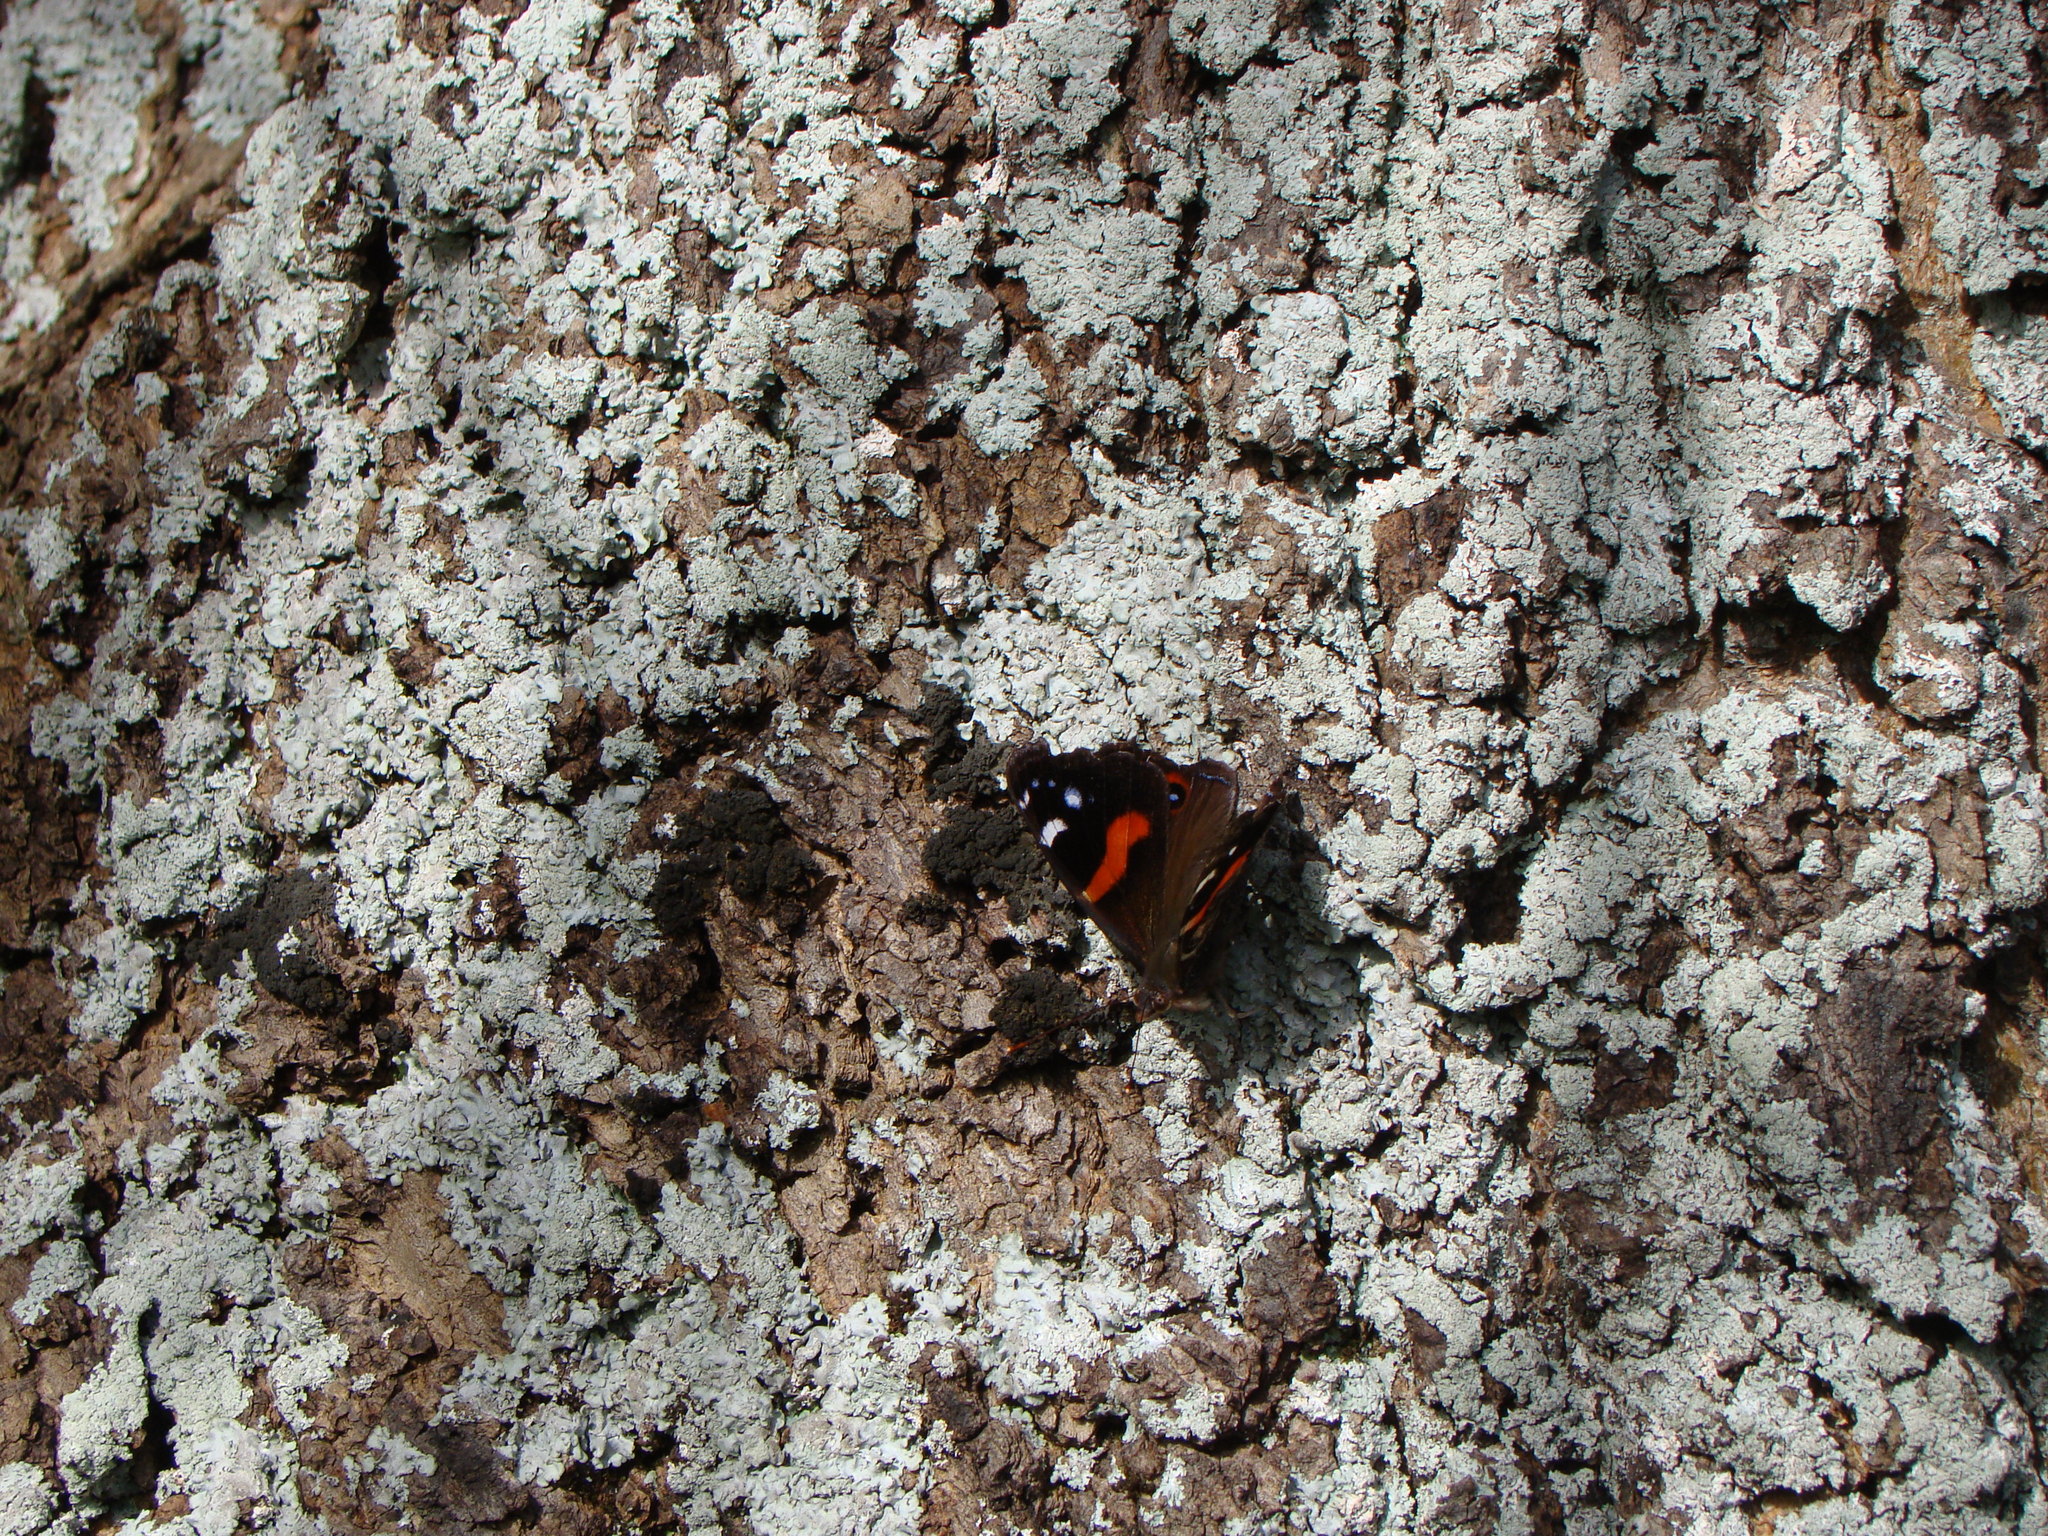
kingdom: Animalia
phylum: Arthropoda
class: Insecta
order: Lepidoptera
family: Nymphalidae
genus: Vanessa
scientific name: Vanessa gonerilla
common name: New zealand red admiral
